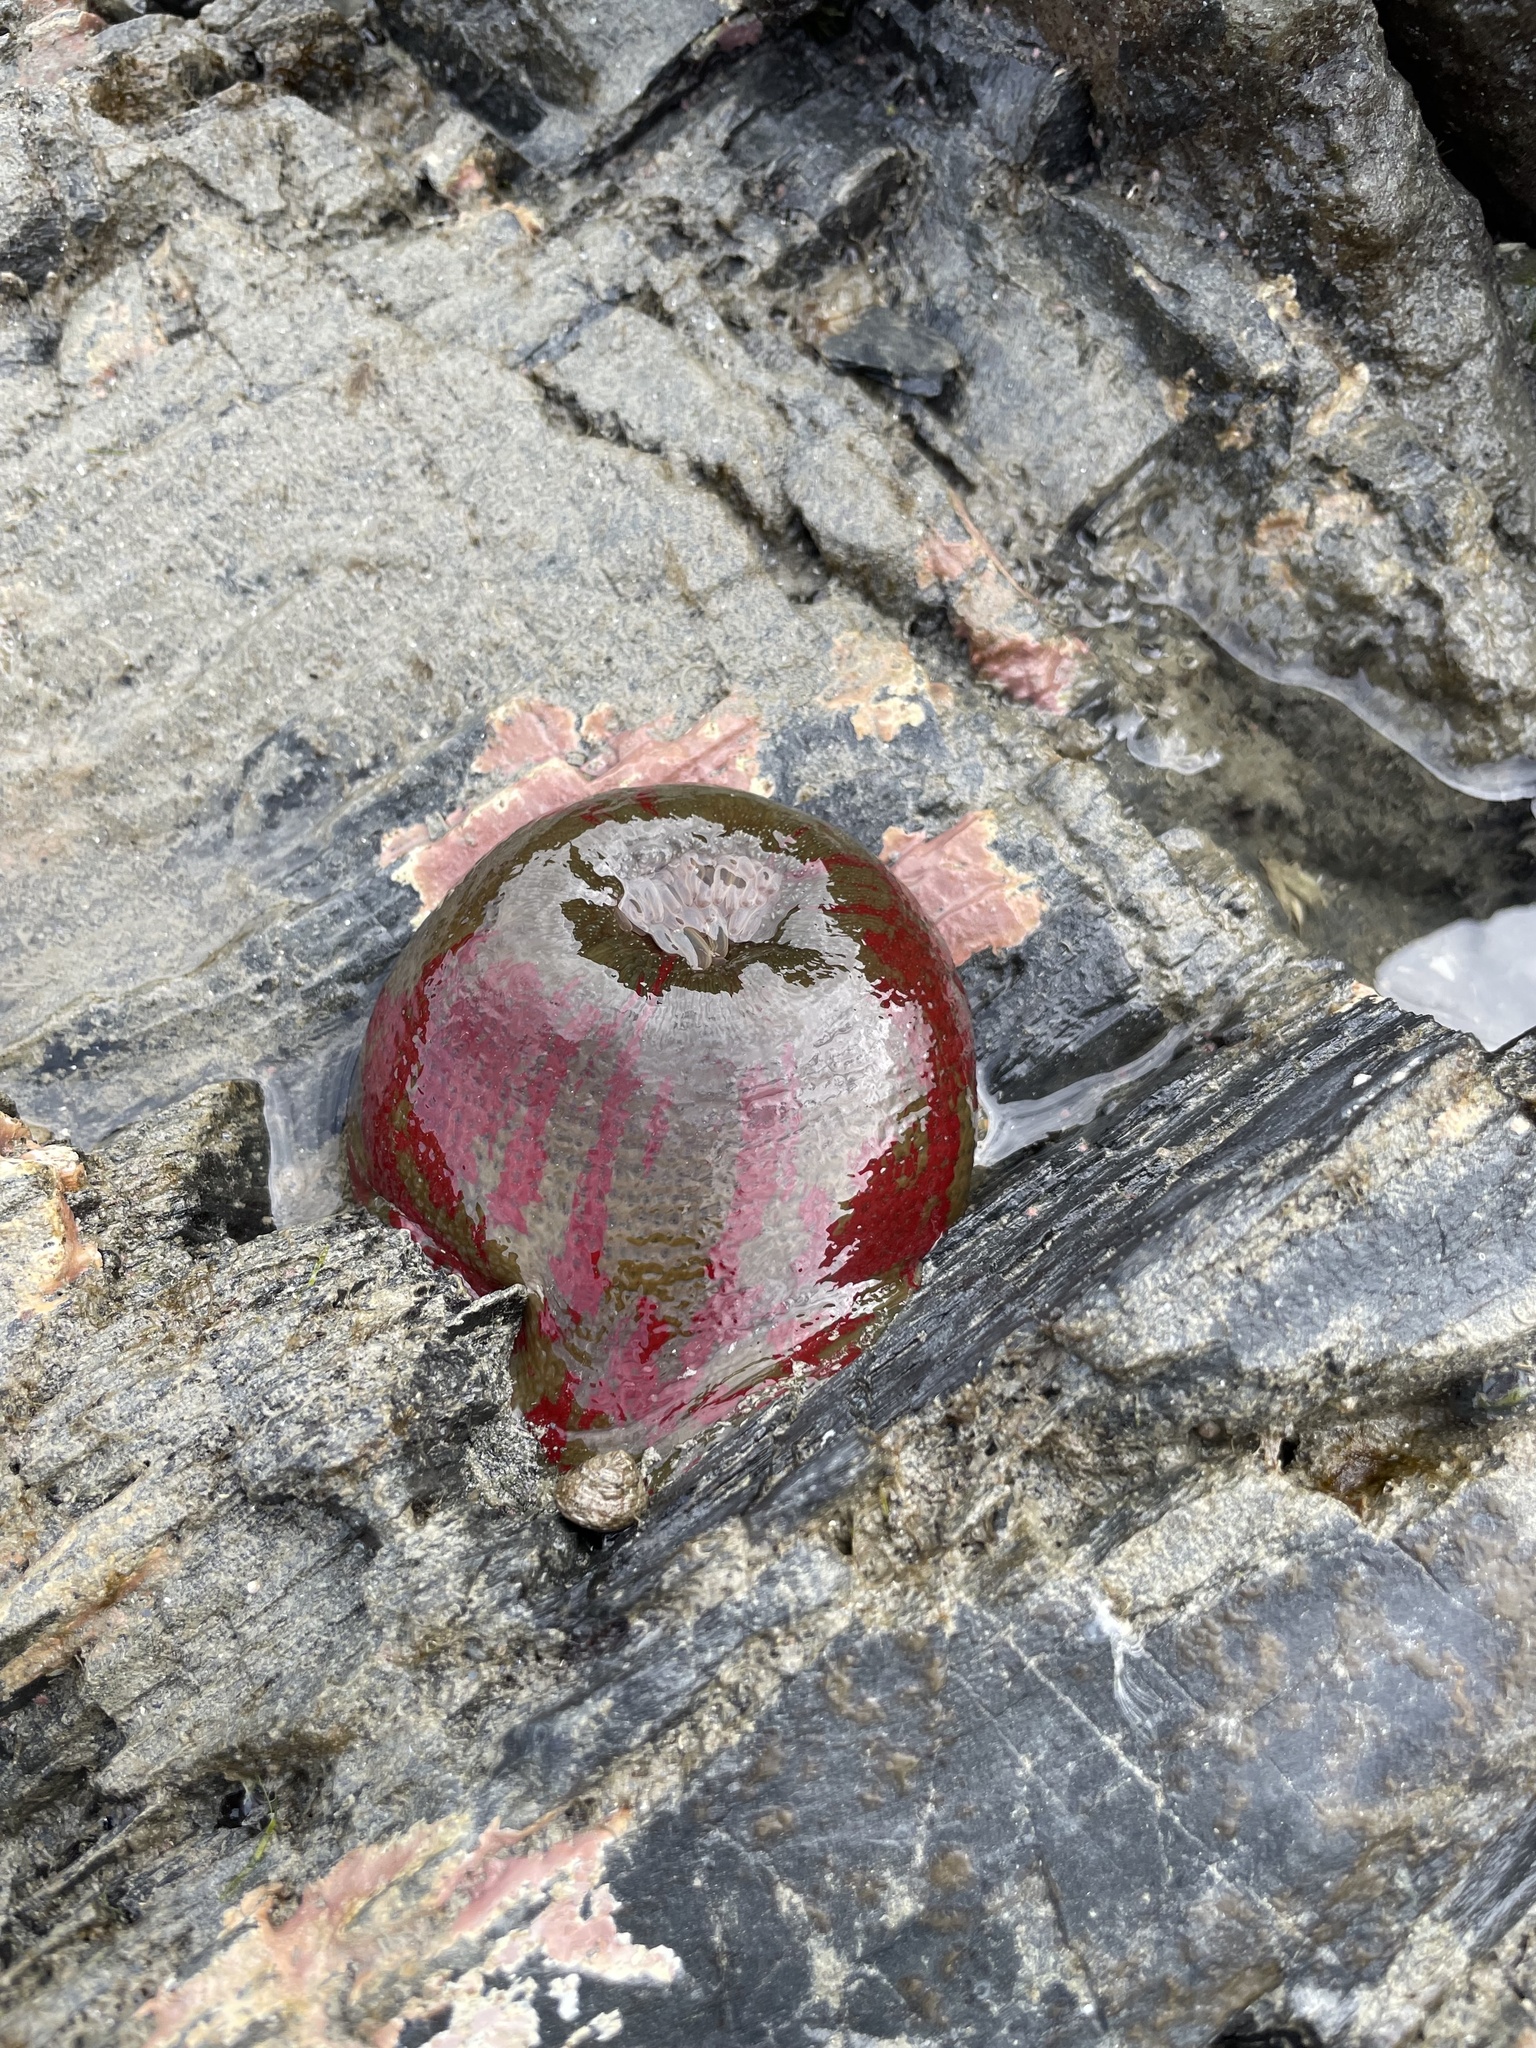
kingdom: Animalia
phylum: Cnidaria
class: Anthozoa
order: Actiniaria
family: Actiniidae
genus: Urticina
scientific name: Urticina grebelnyi
